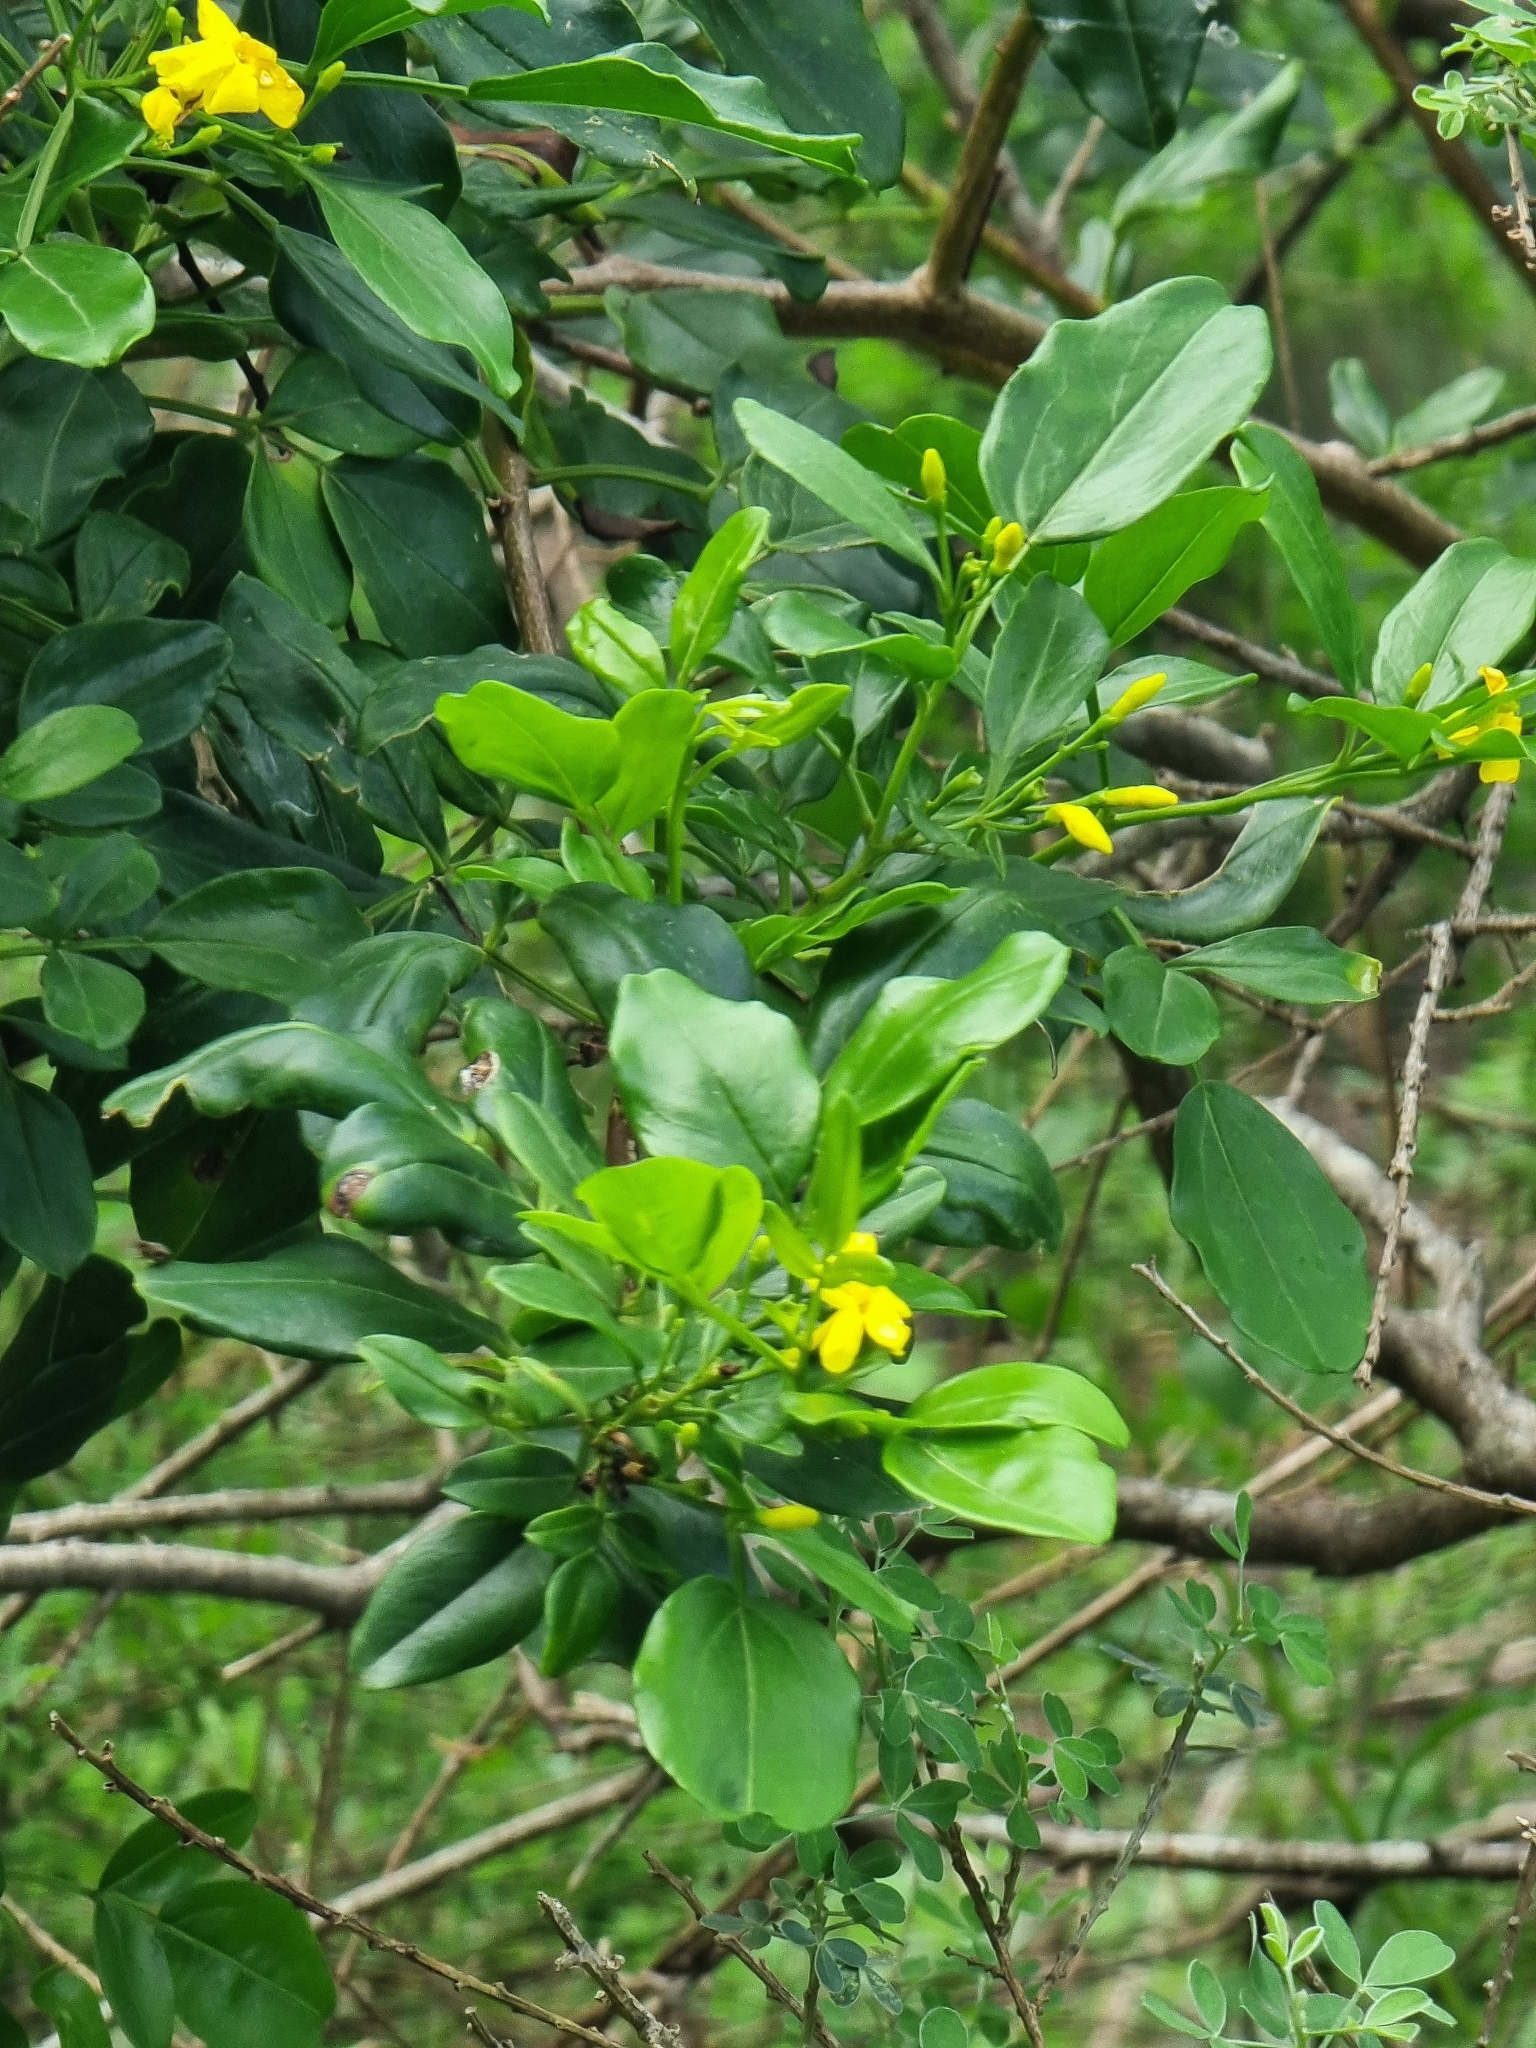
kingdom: Plantae
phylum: Tracheophyta
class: Magnoliopsida
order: Lamiales
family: Oleaceae
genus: Chrysojasminum
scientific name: Chrysojasminum odoratissimum
